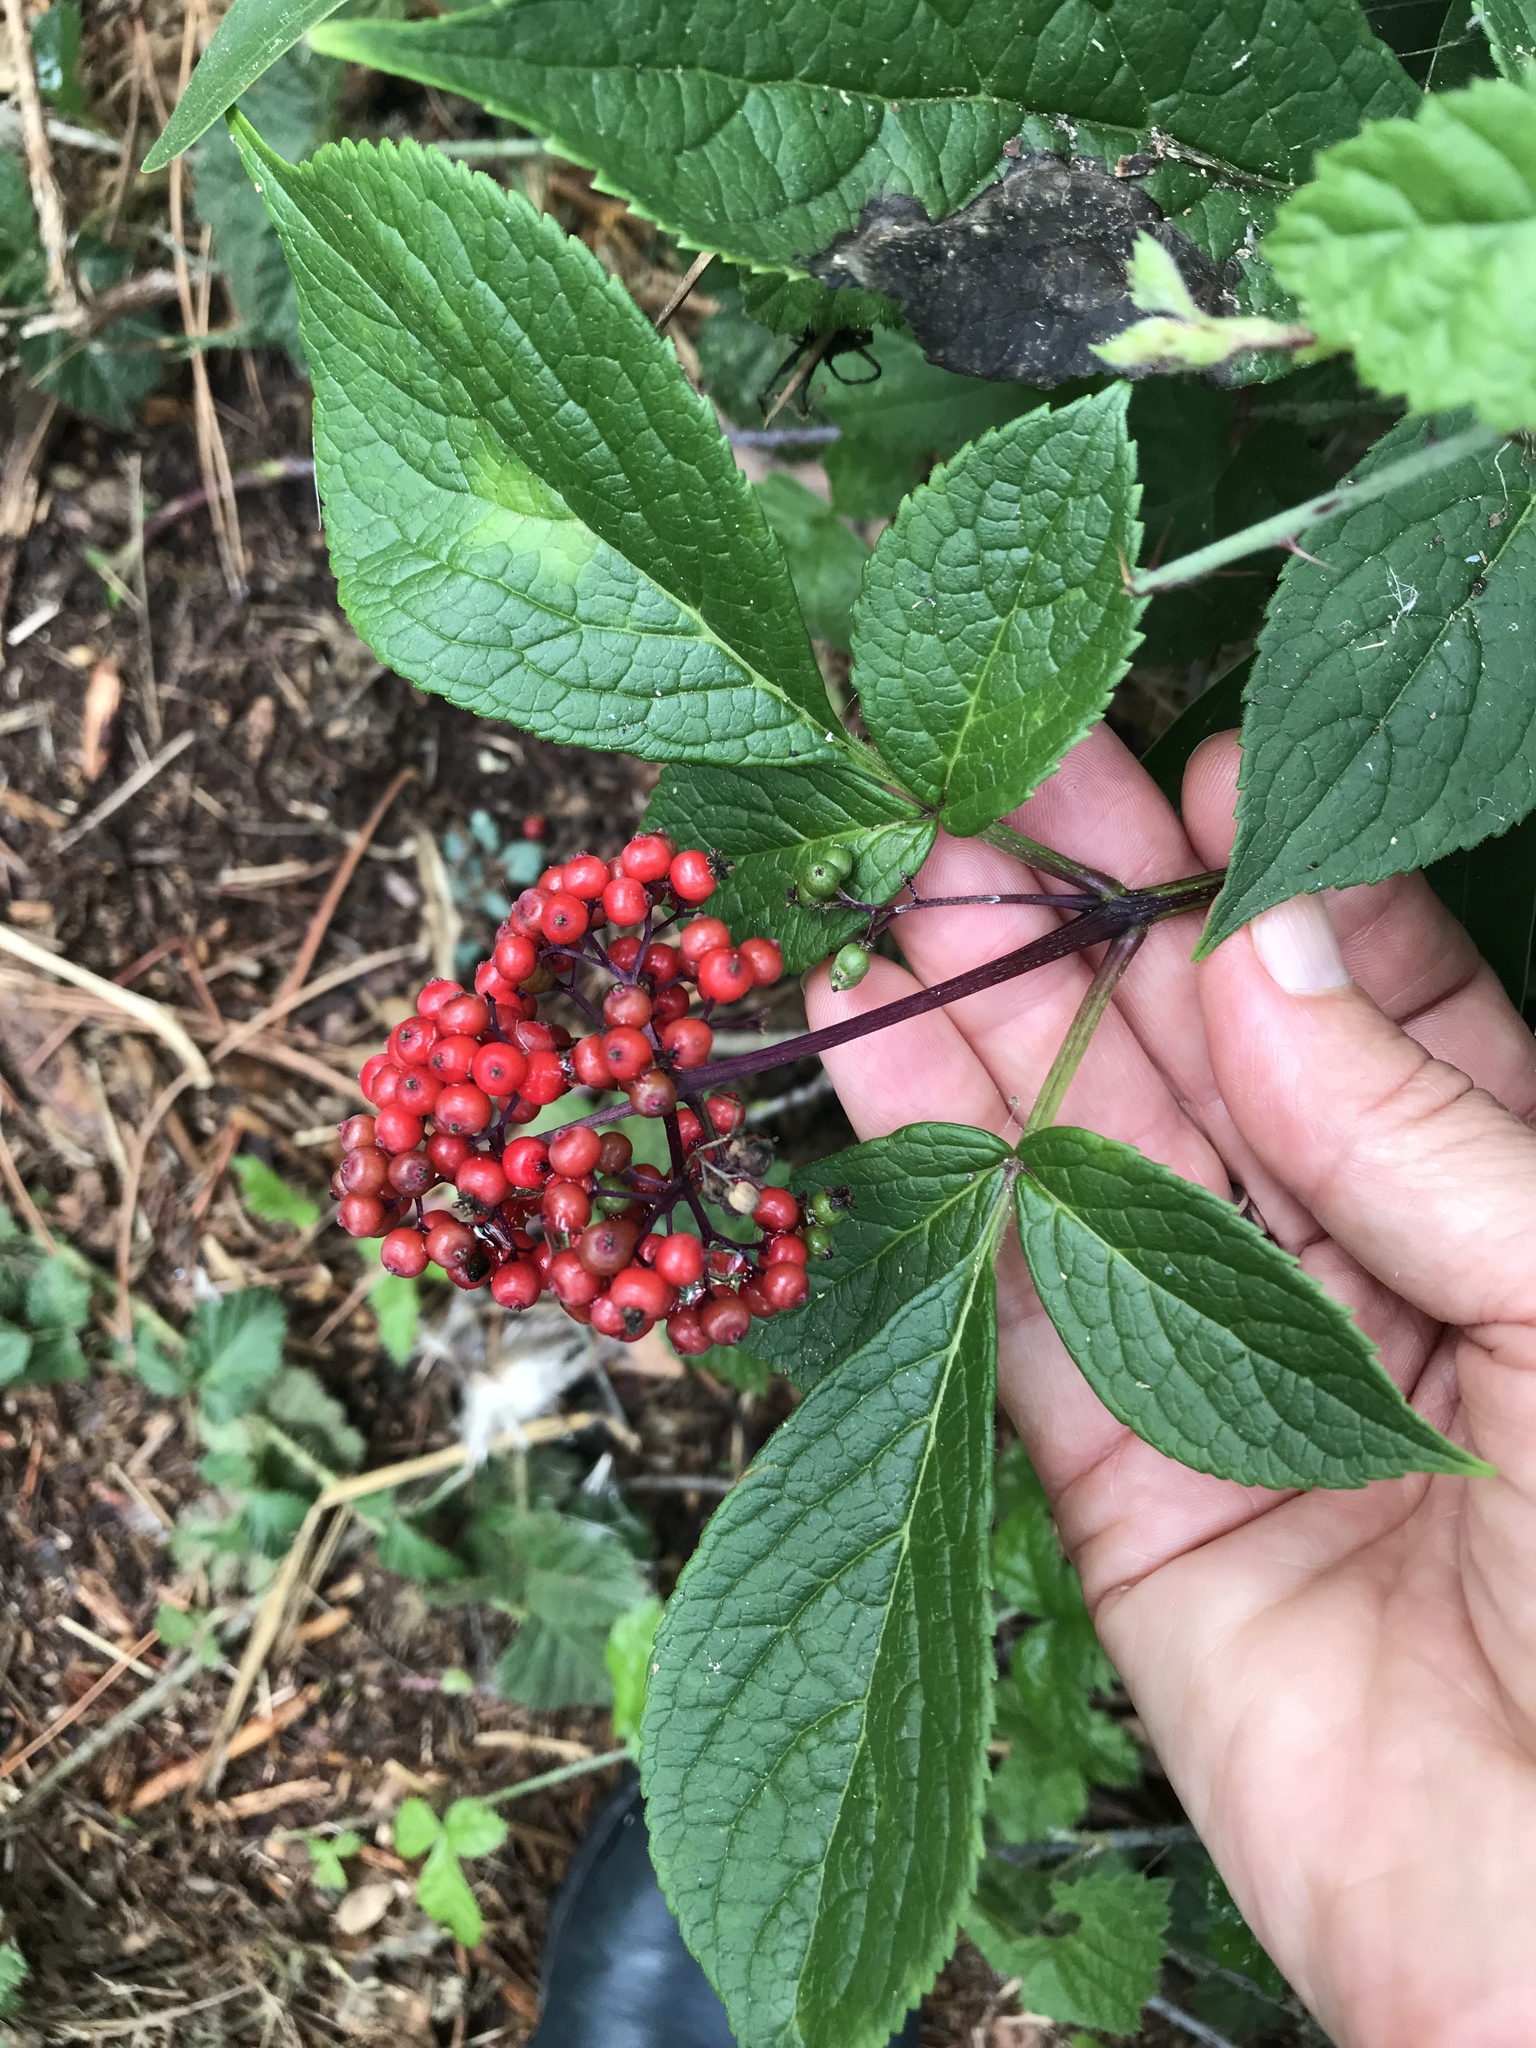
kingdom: Plantae
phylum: Tracheophyta
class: Magnoliopsida
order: Dipsacales
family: Viburnaceae
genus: Sambucus
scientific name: Sambucus racemosa
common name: Red-berried elder
